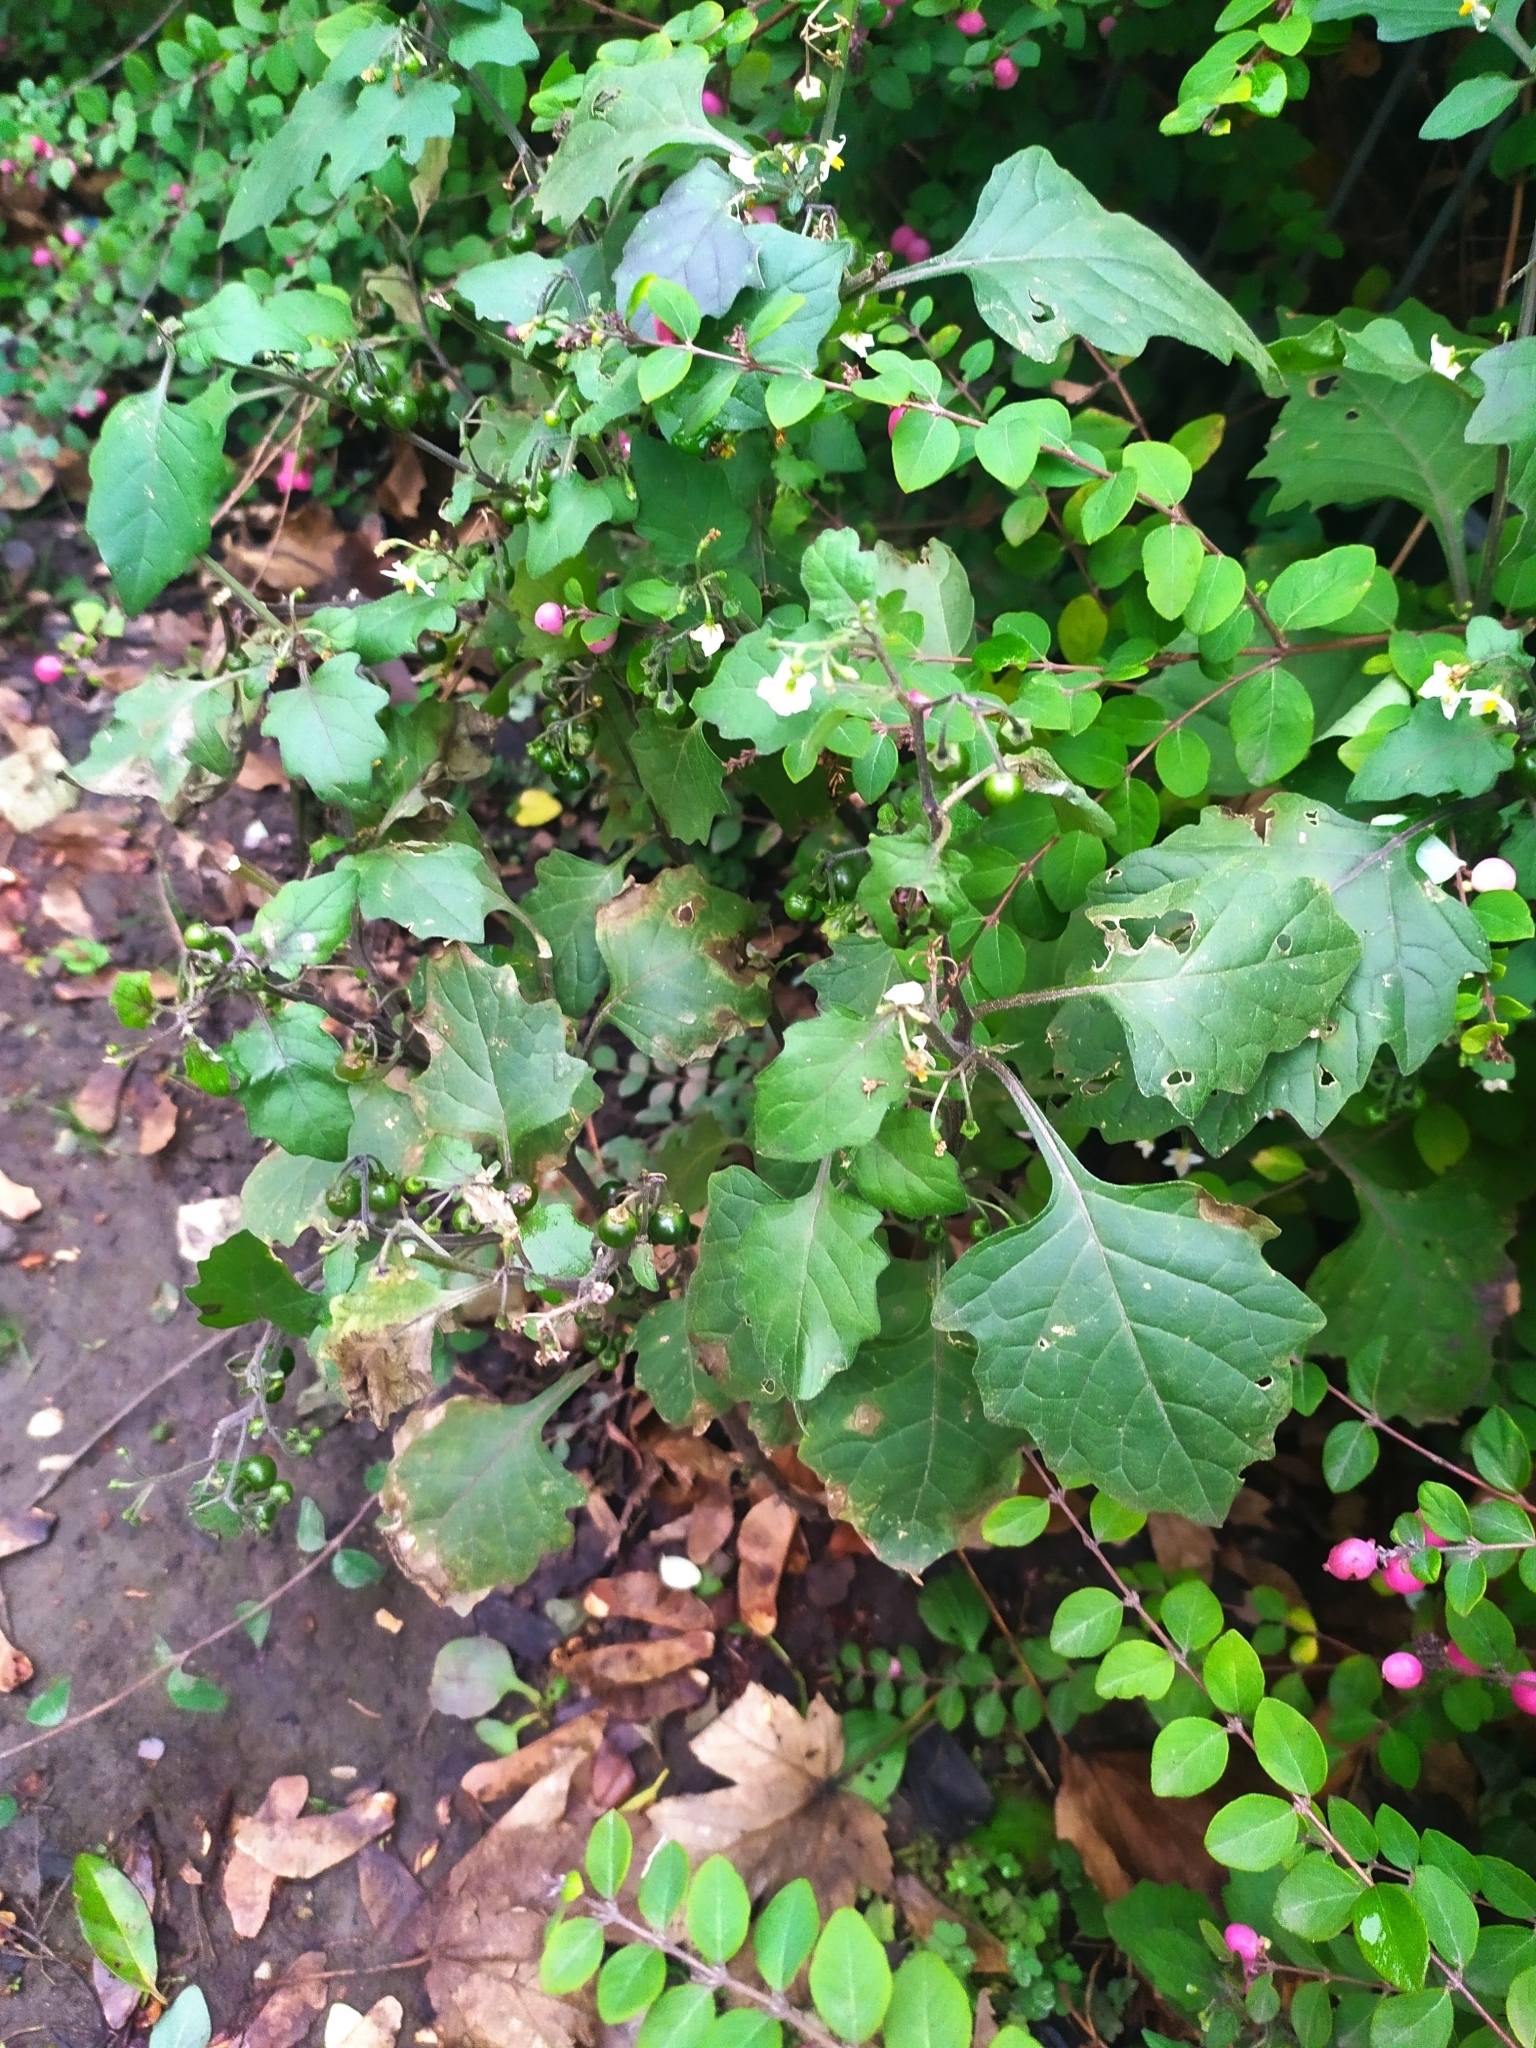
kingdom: Plantae
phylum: Tracheophyta
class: Magnoliopsida
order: Solanales
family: Solanaceae
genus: Solanum
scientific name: Solanum nigrum
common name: Black nightshade
